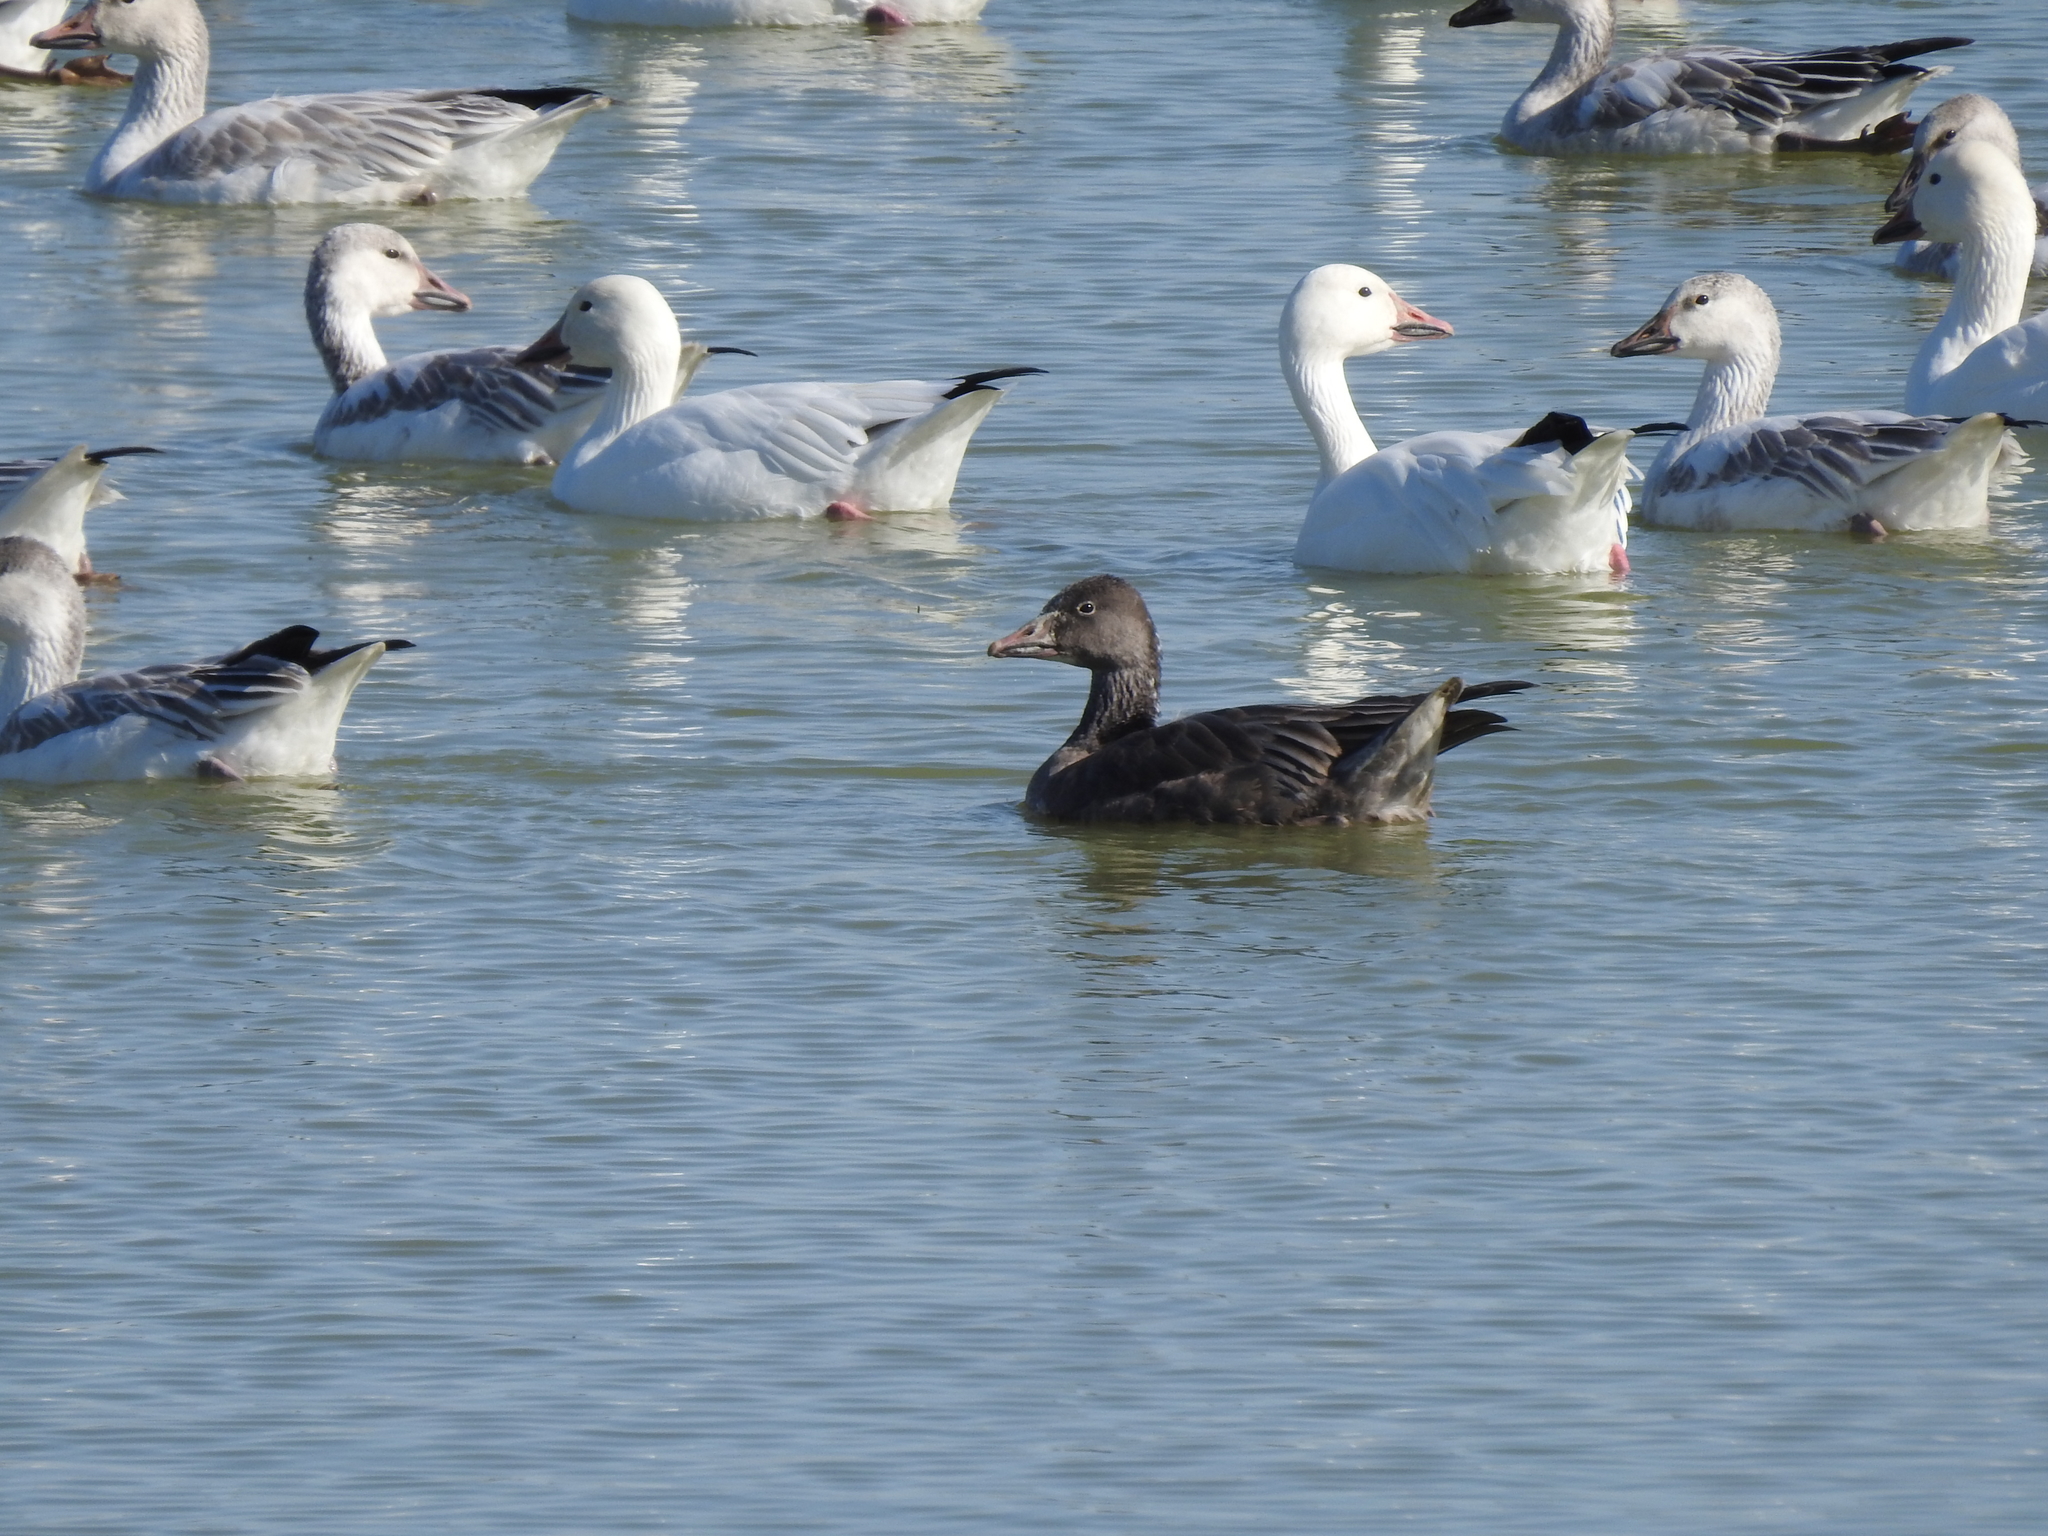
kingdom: Animalia
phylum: Chordata
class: Aves
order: Anseriformes
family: Anatidae
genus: Anser
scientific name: Anser caerulescens
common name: Snow goose
